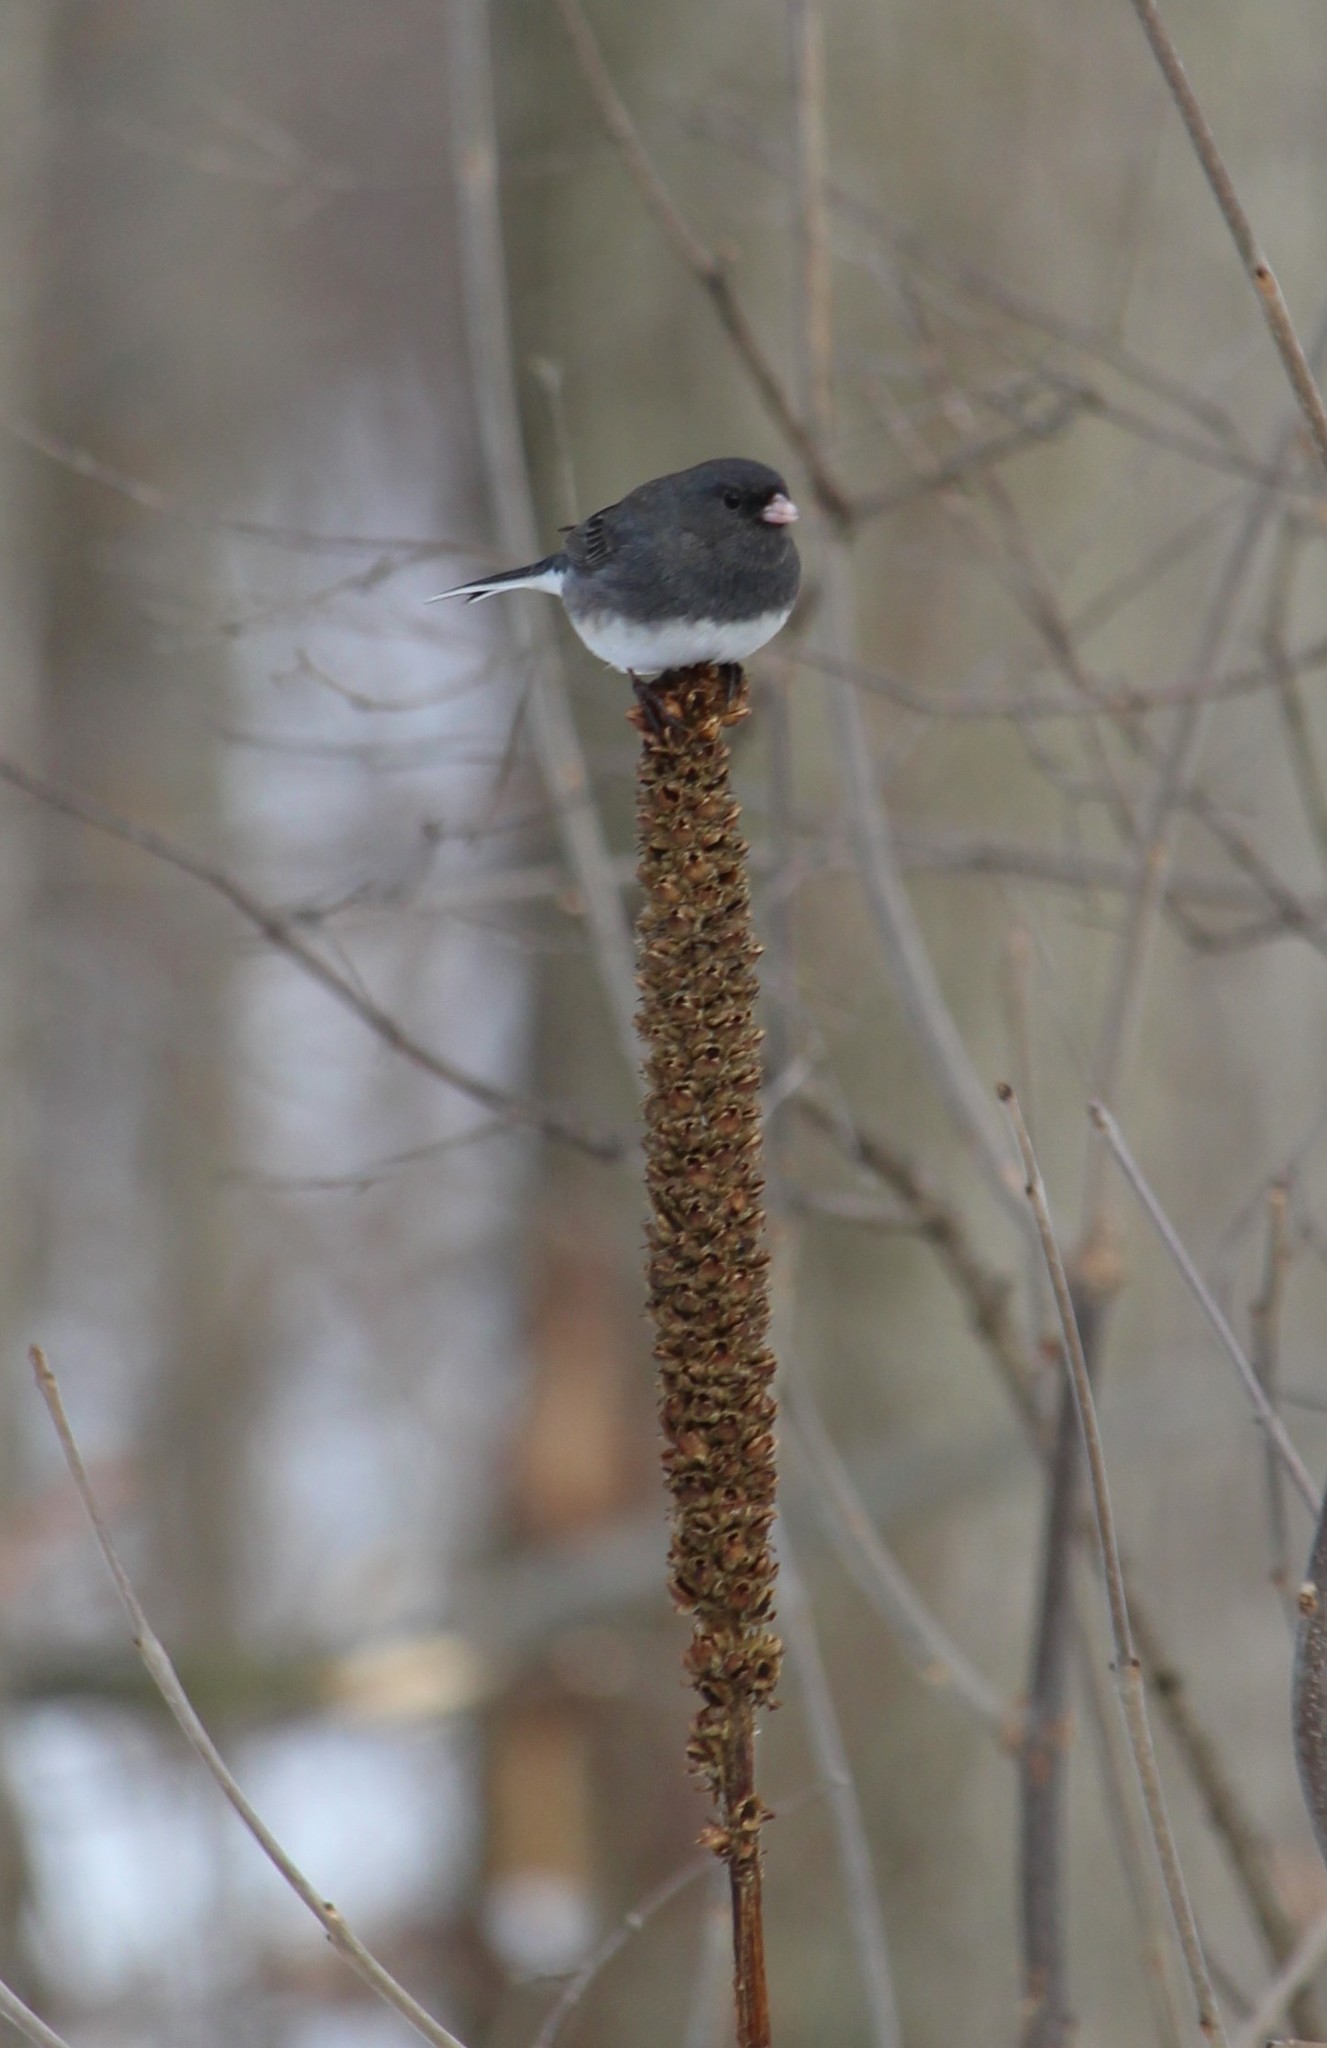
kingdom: Animalia
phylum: Chordata
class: Aves
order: Passeriformes
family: Passerellidae
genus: Junco
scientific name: Junco hyemalis
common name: Dark-eyed junco
